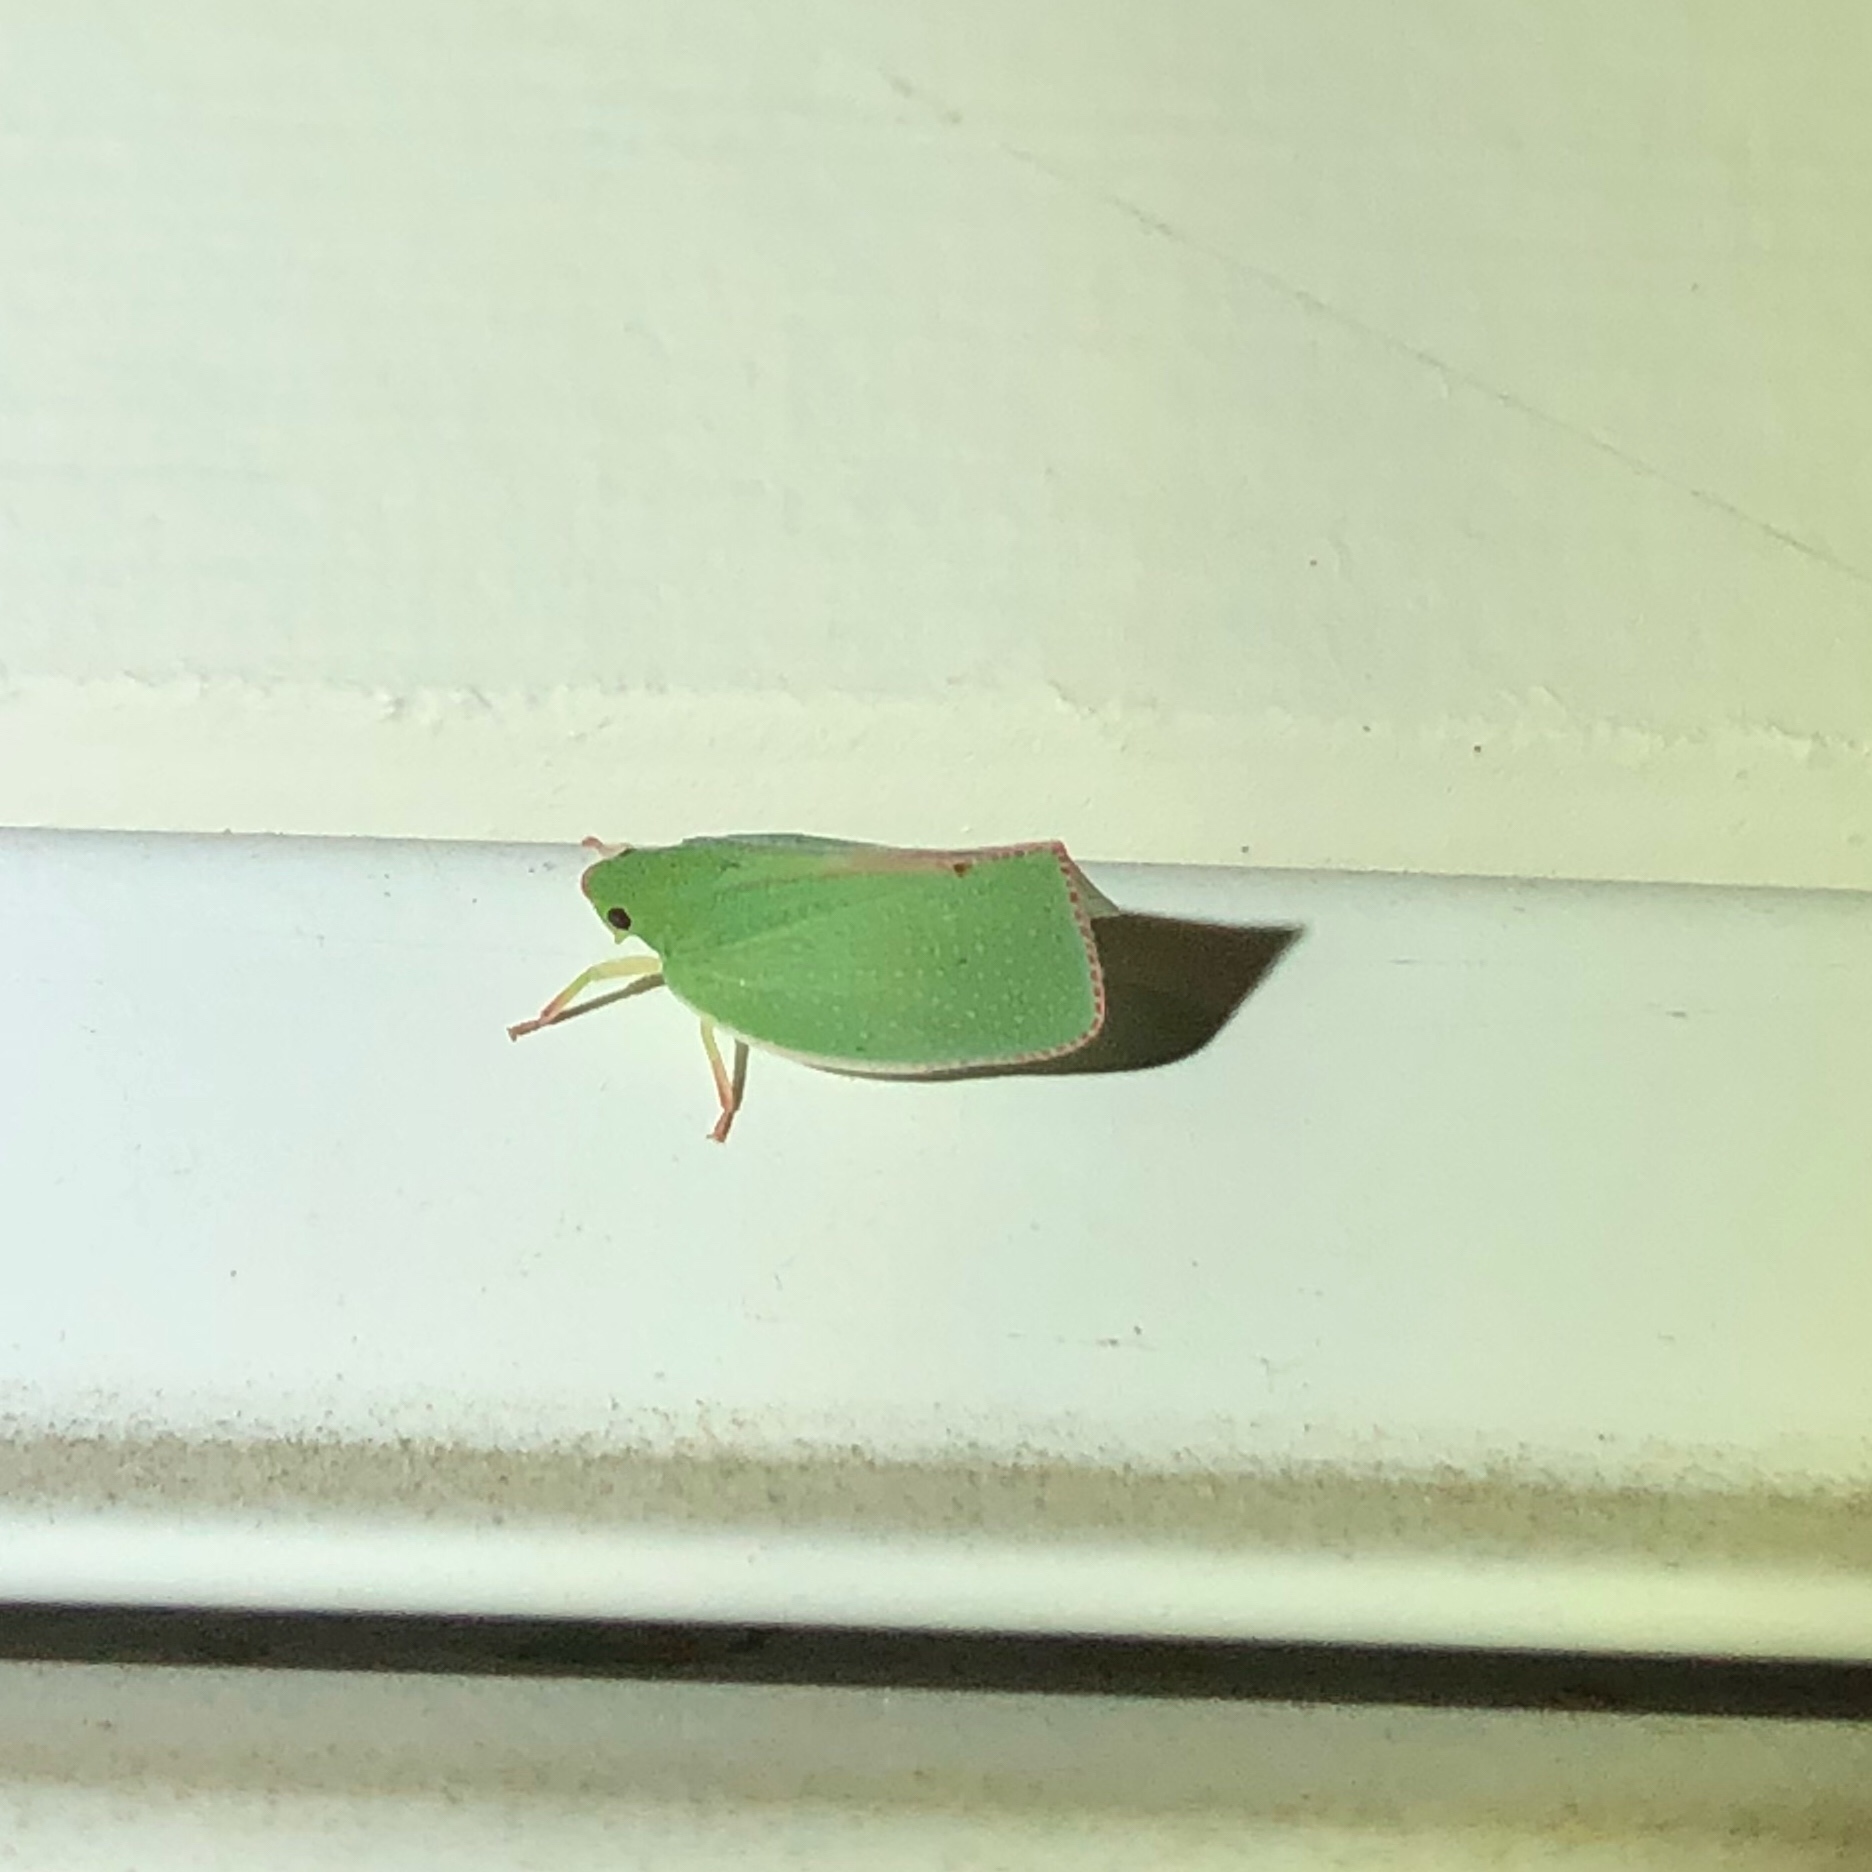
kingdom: Animalia
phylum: Arthropoda
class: Insecta
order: Hemiptera
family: Flatidae
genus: Siphanta
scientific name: Siphanta acuta
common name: Torpedo bug
